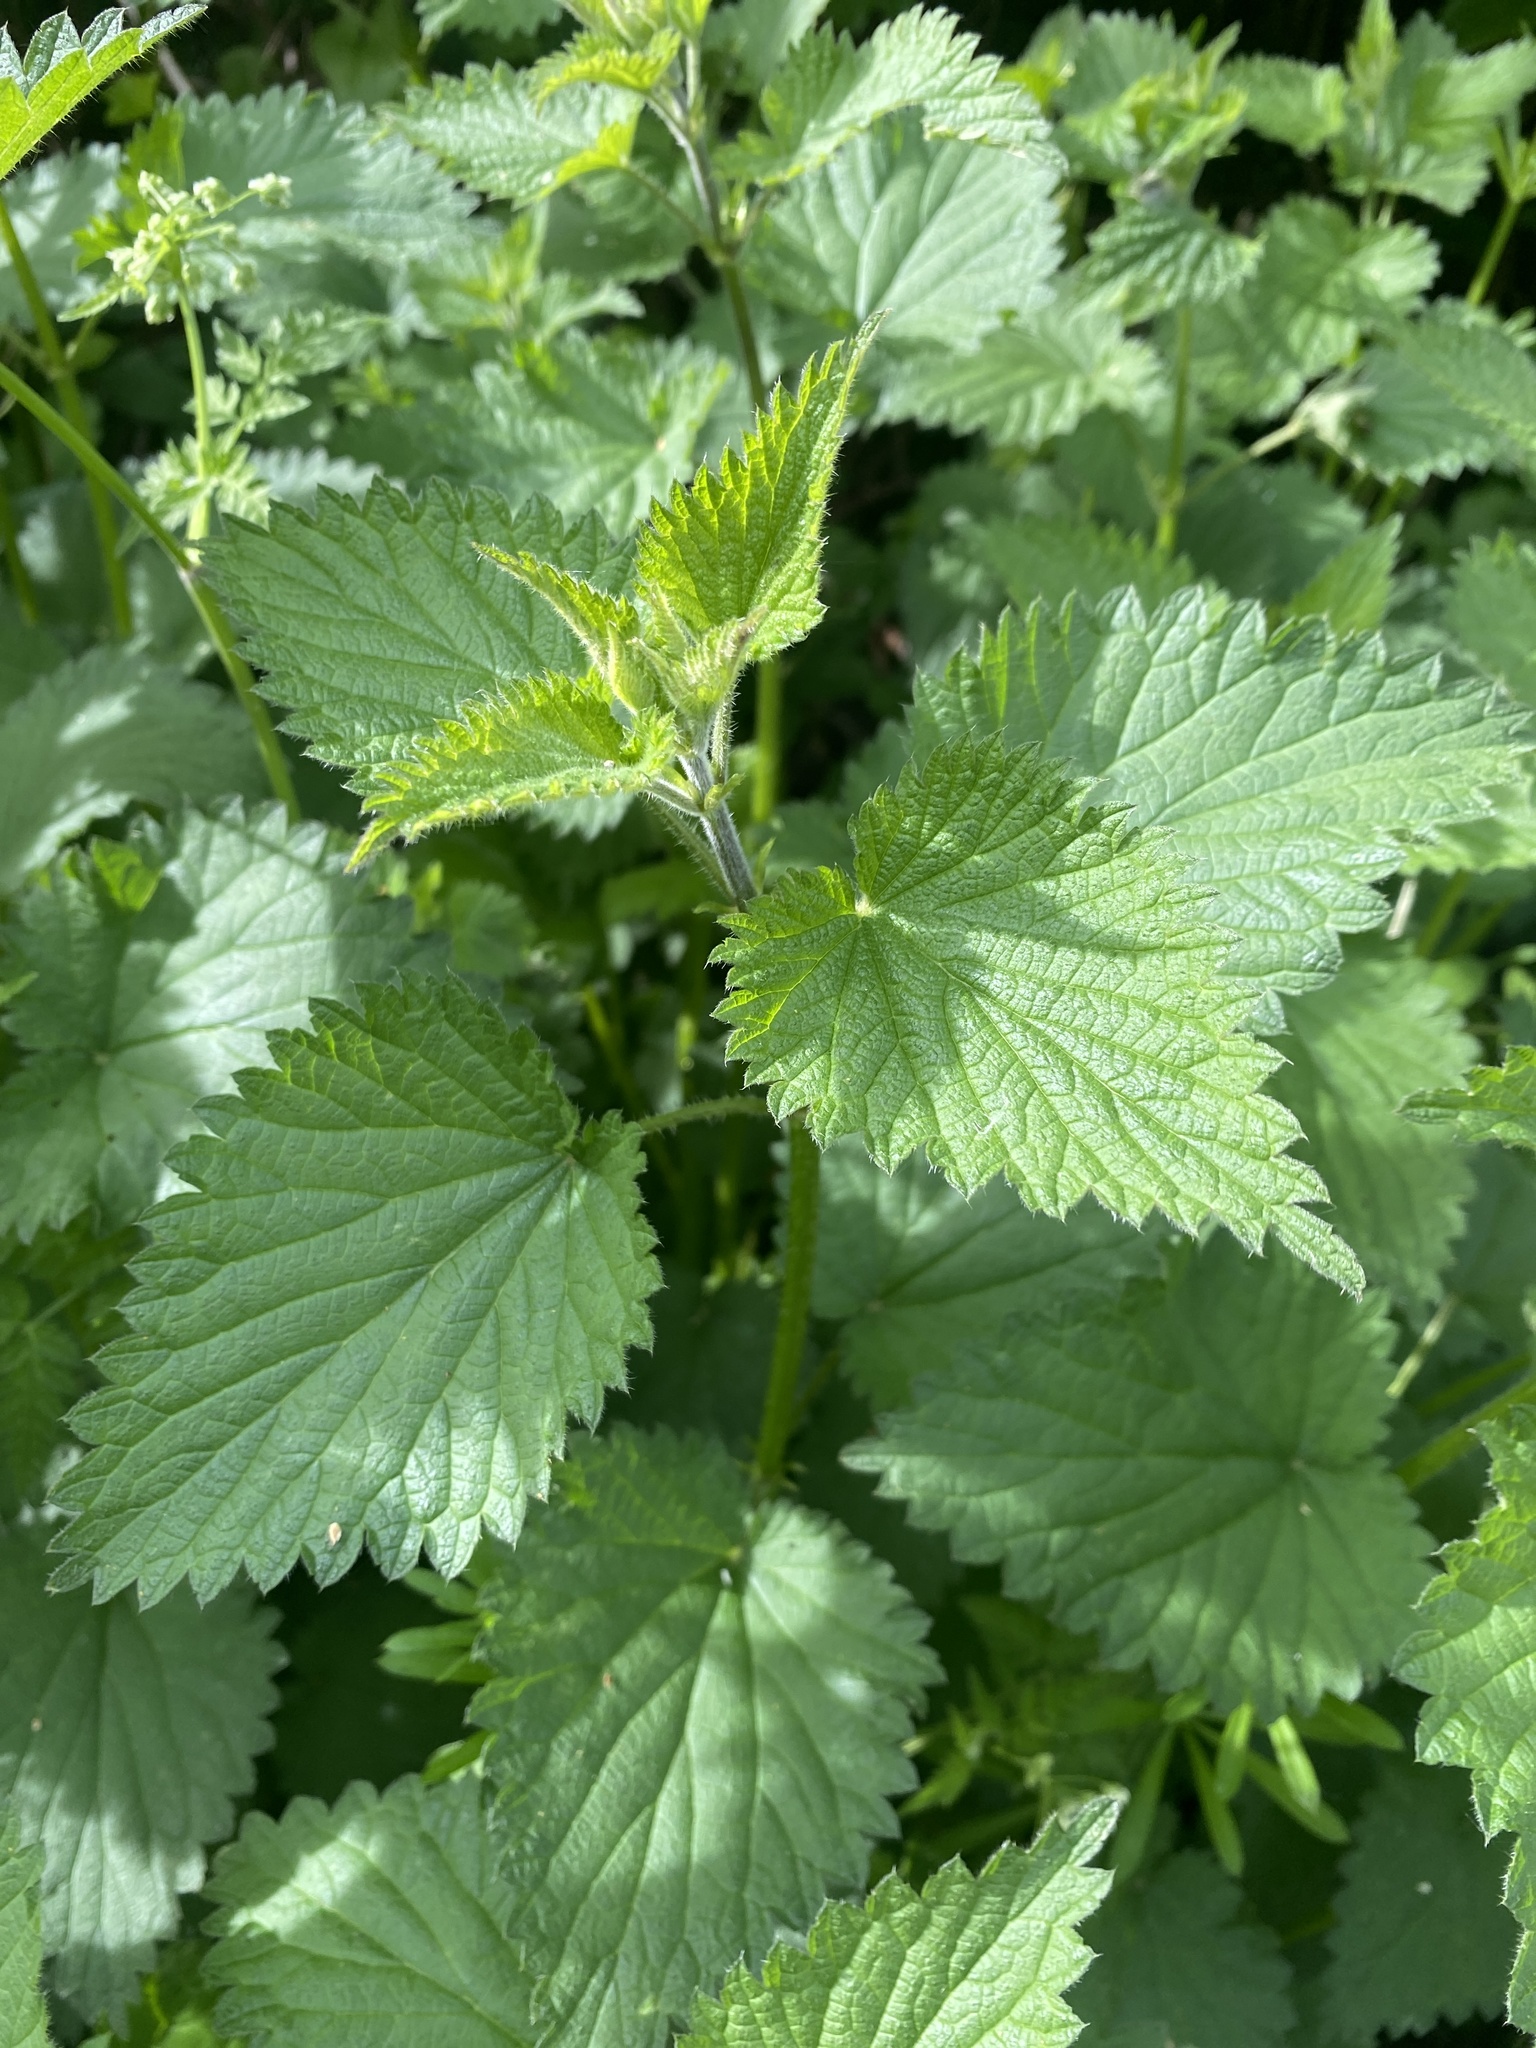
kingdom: Plantae
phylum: Tracheophyta
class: Magnoliopsida
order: Rosales
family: Urticaceae
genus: Urtica
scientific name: Urtica dioica
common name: Common nettle
